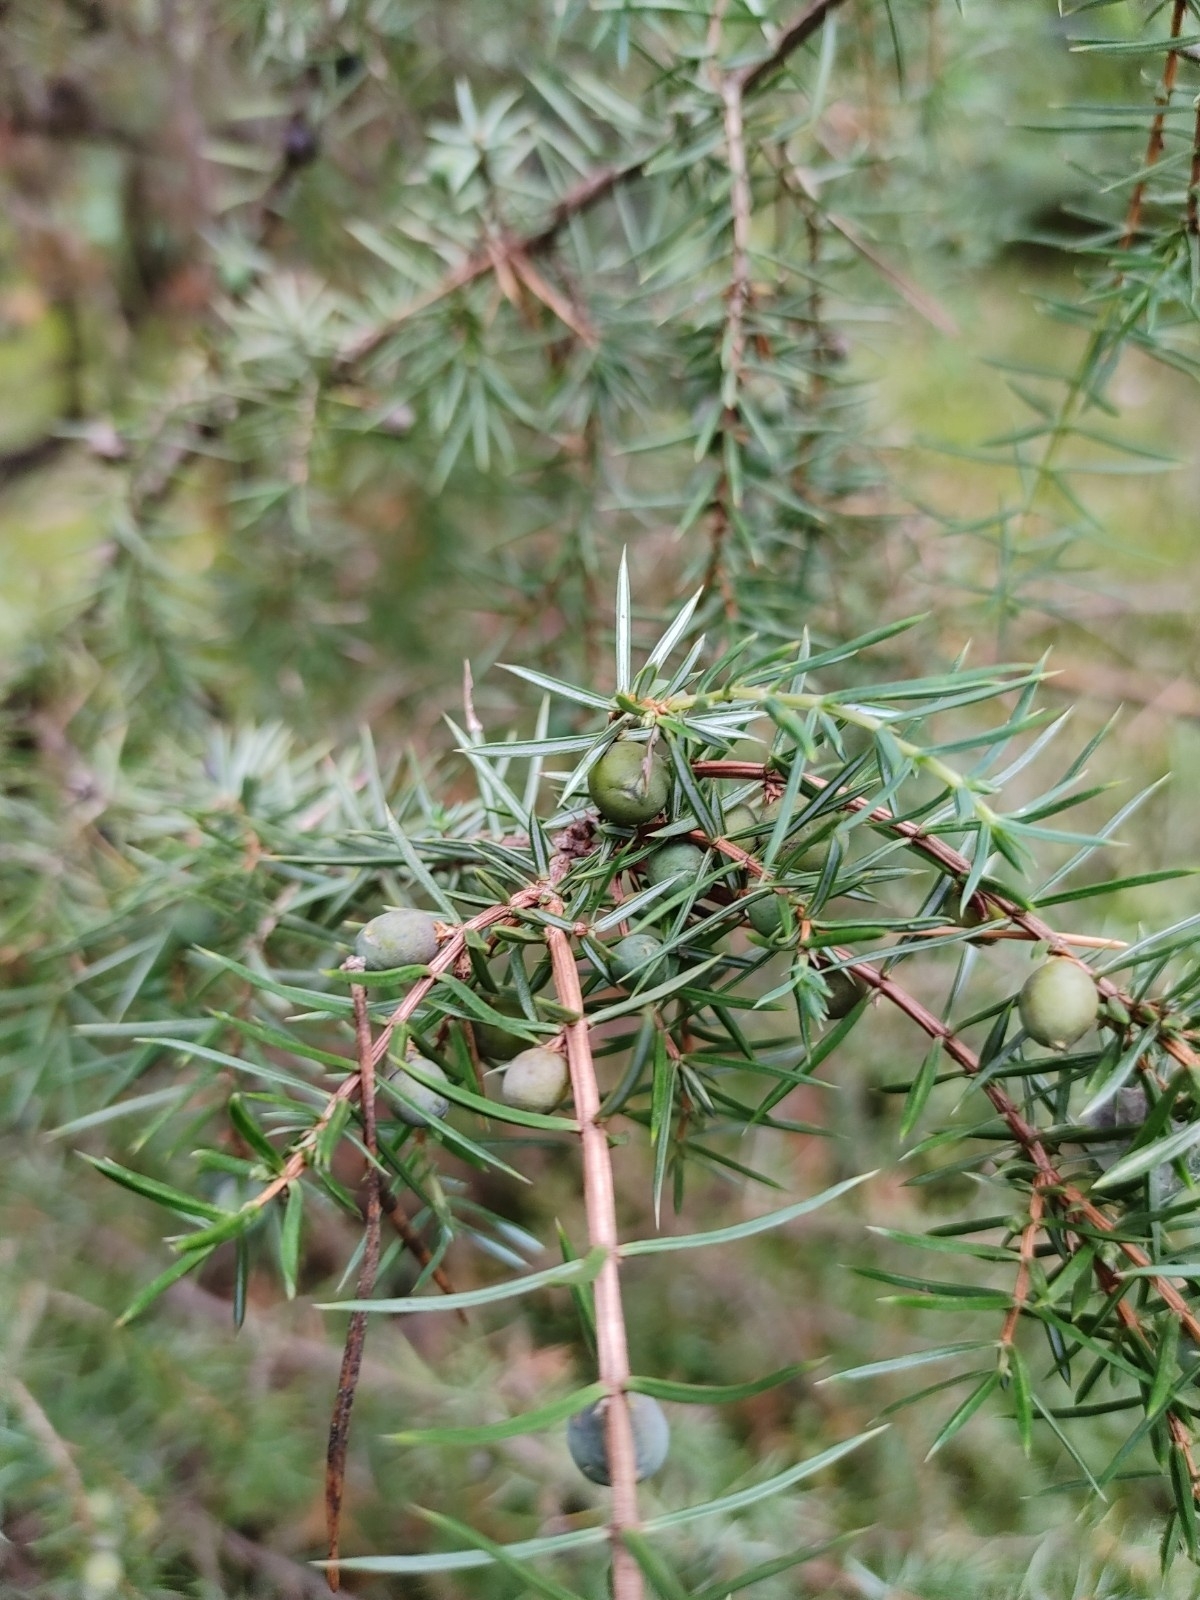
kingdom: Plantae
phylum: Tracheophyta
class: Pinopsida
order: Pinales
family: Cupressaceae
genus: Juniperus
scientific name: Juniperus communis
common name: Common juniper
